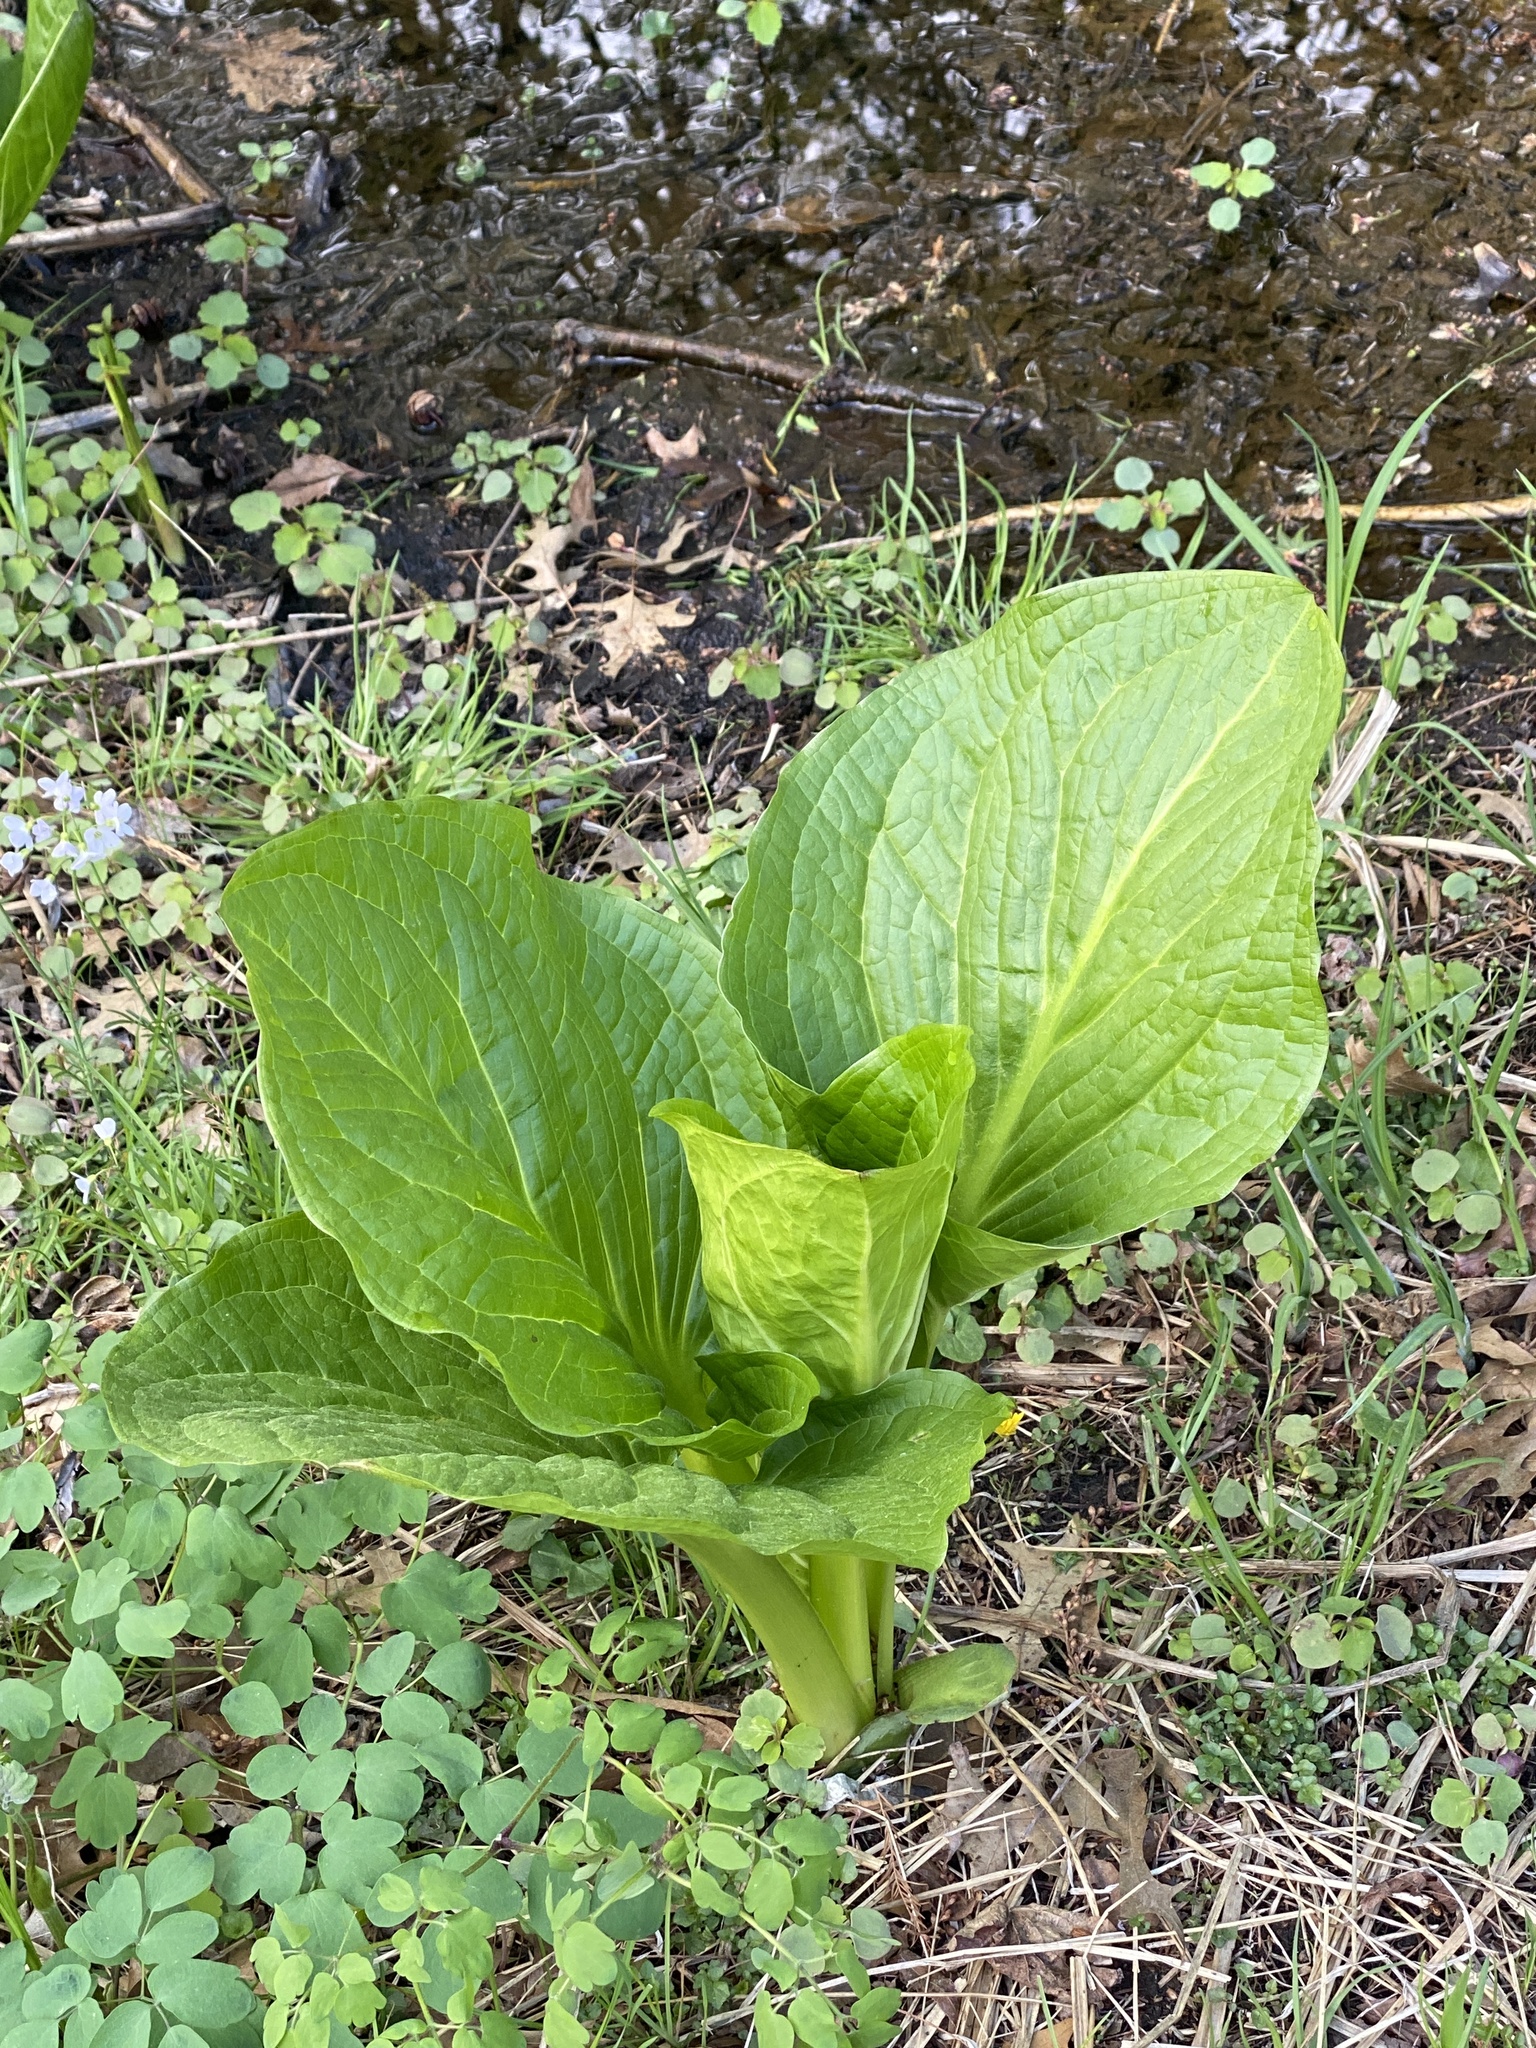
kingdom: Plantae
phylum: Tracheophyta
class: Liliopsida
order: Alismatales
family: Araceae
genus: Symplocarpus
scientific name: Symplocarpus foetidus
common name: Eastern skunk cabbage
